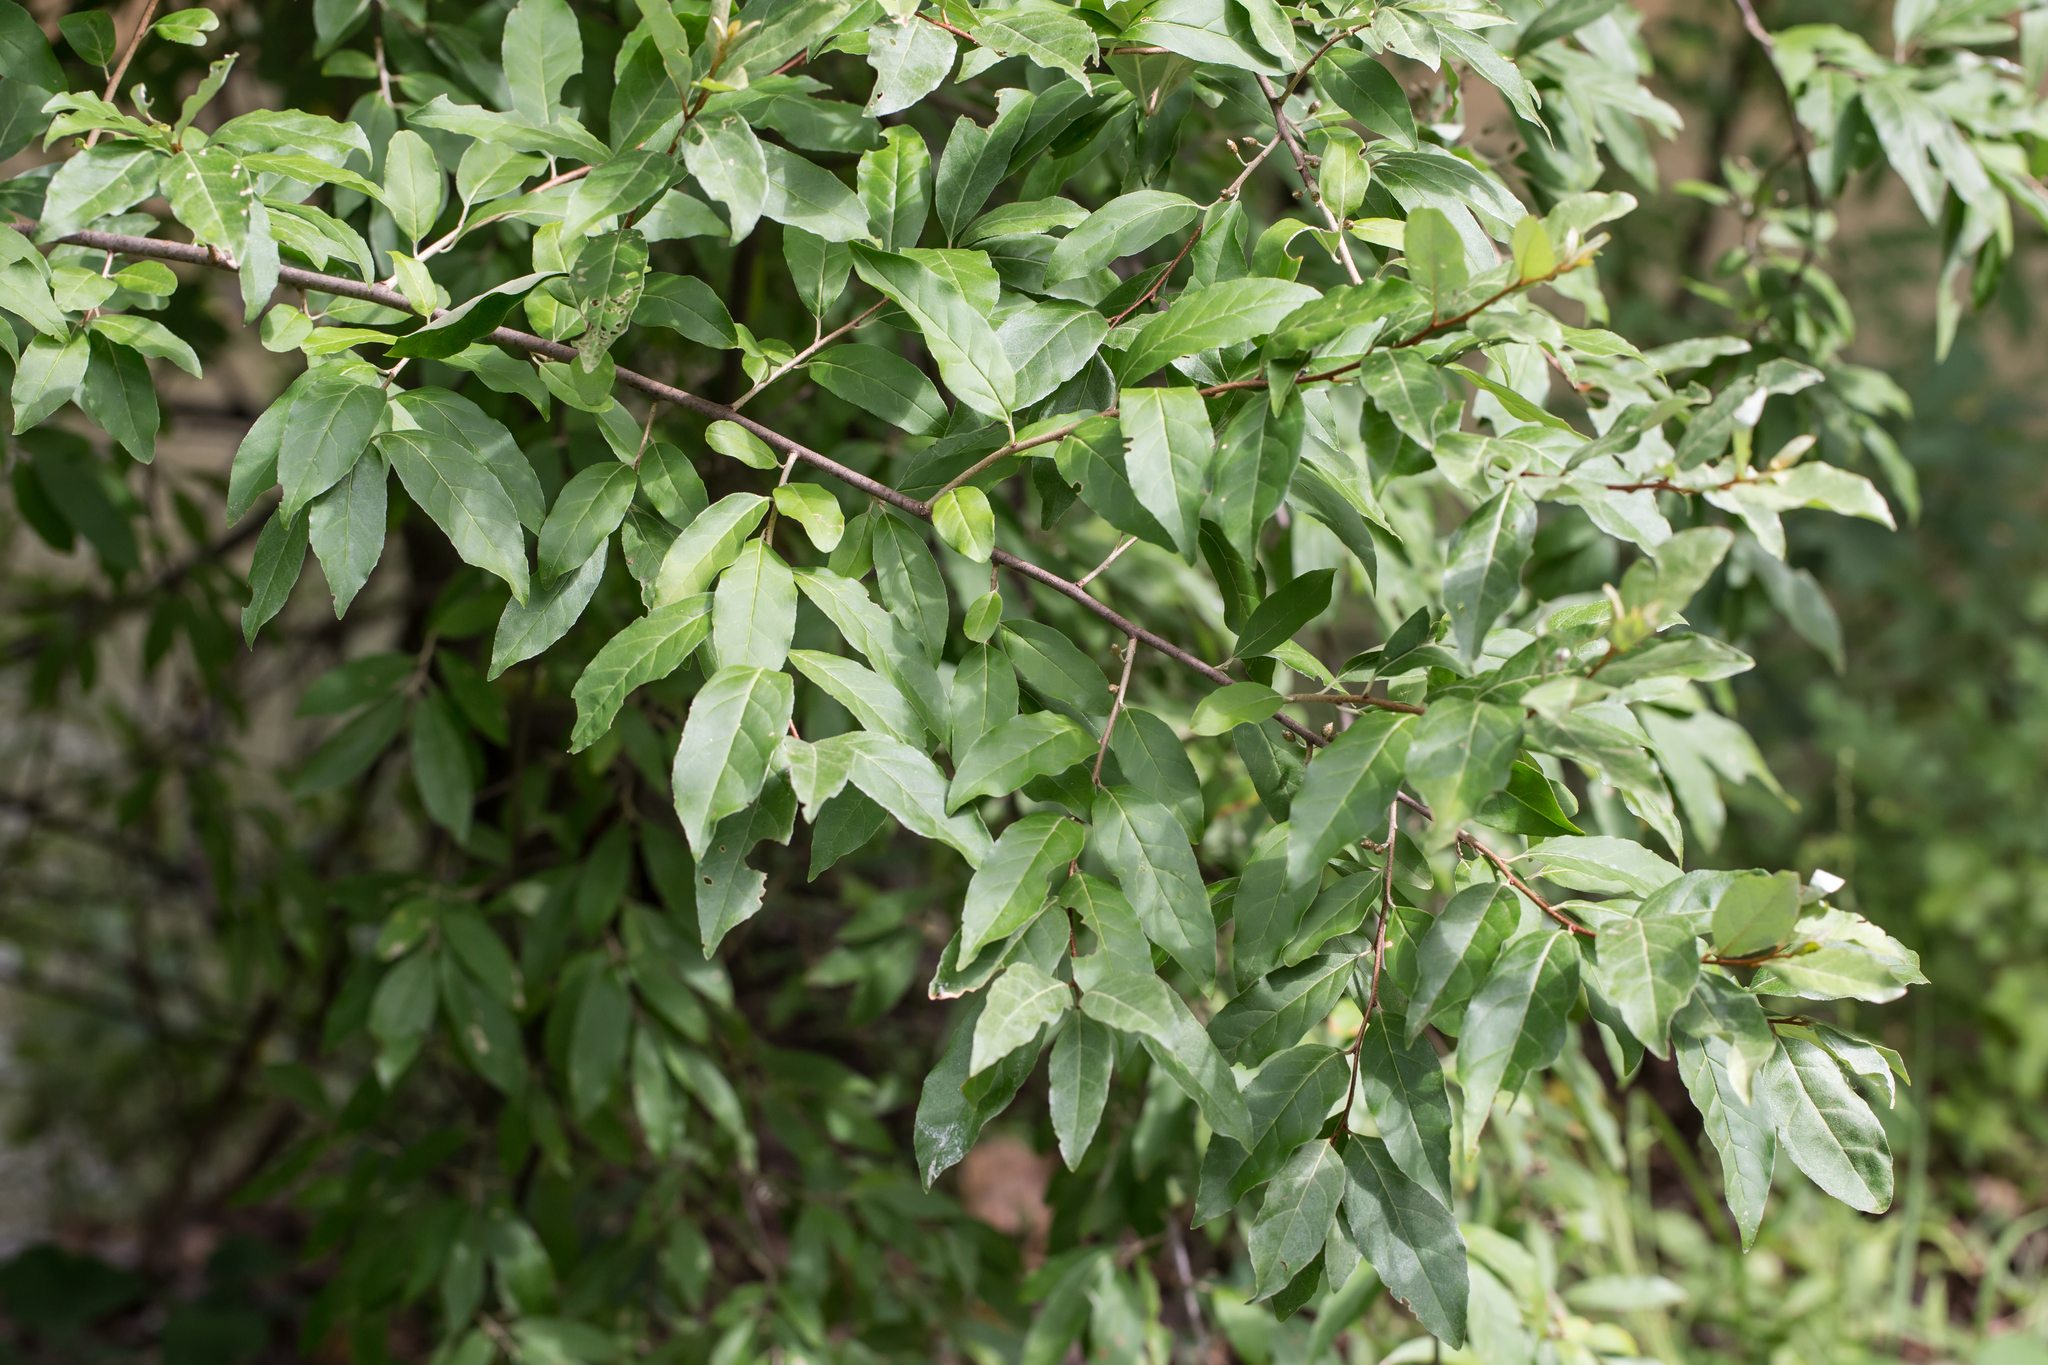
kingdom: Plantae
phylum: Tracheophyta
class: Magnoliopsida
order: Rosales
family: Elaeagnaceae
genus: Elaeagnus
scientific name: Elaeagnus umbellata
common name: Autumn olive
